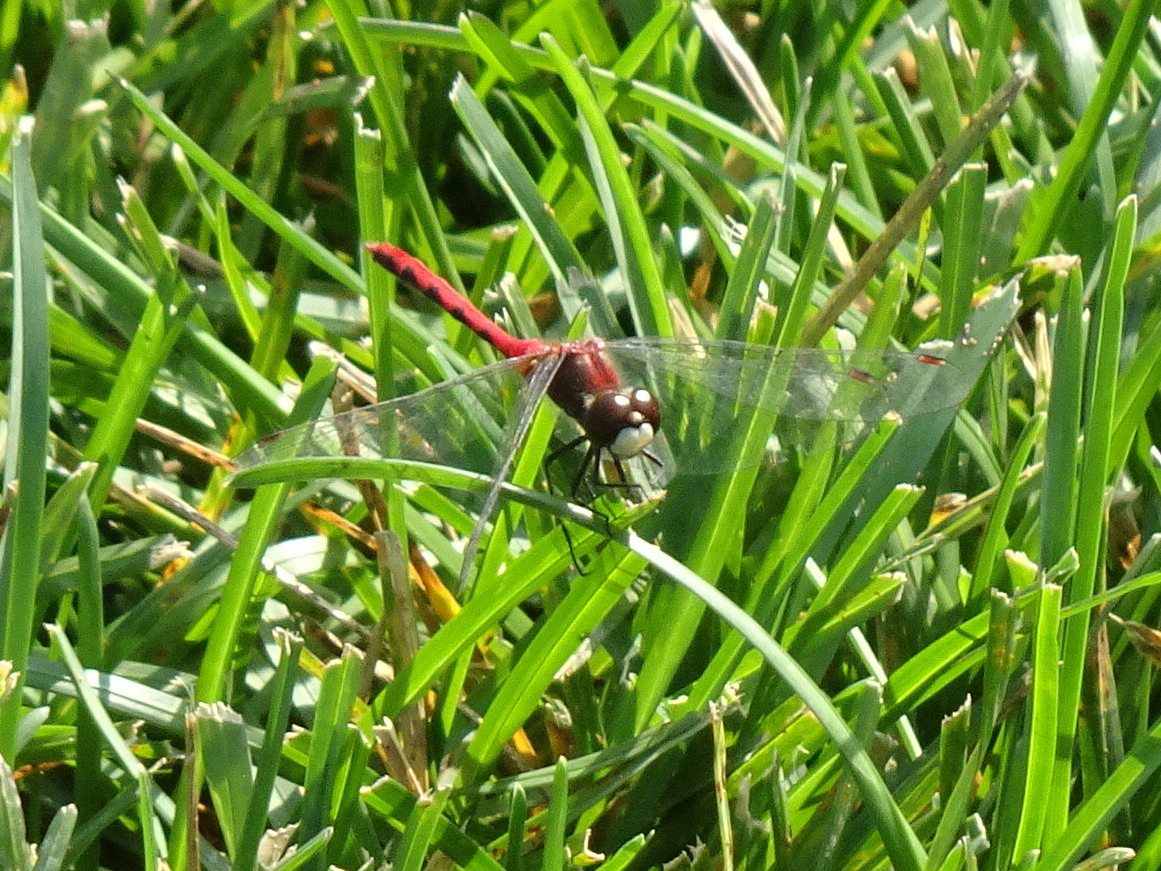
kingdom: Animalia
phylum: Arthropoda
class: Insecta
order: Odonata
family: Libellulidae
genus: Sympetrum
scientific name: Sympetrum obtrusum
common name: White-faced meadowhawk
